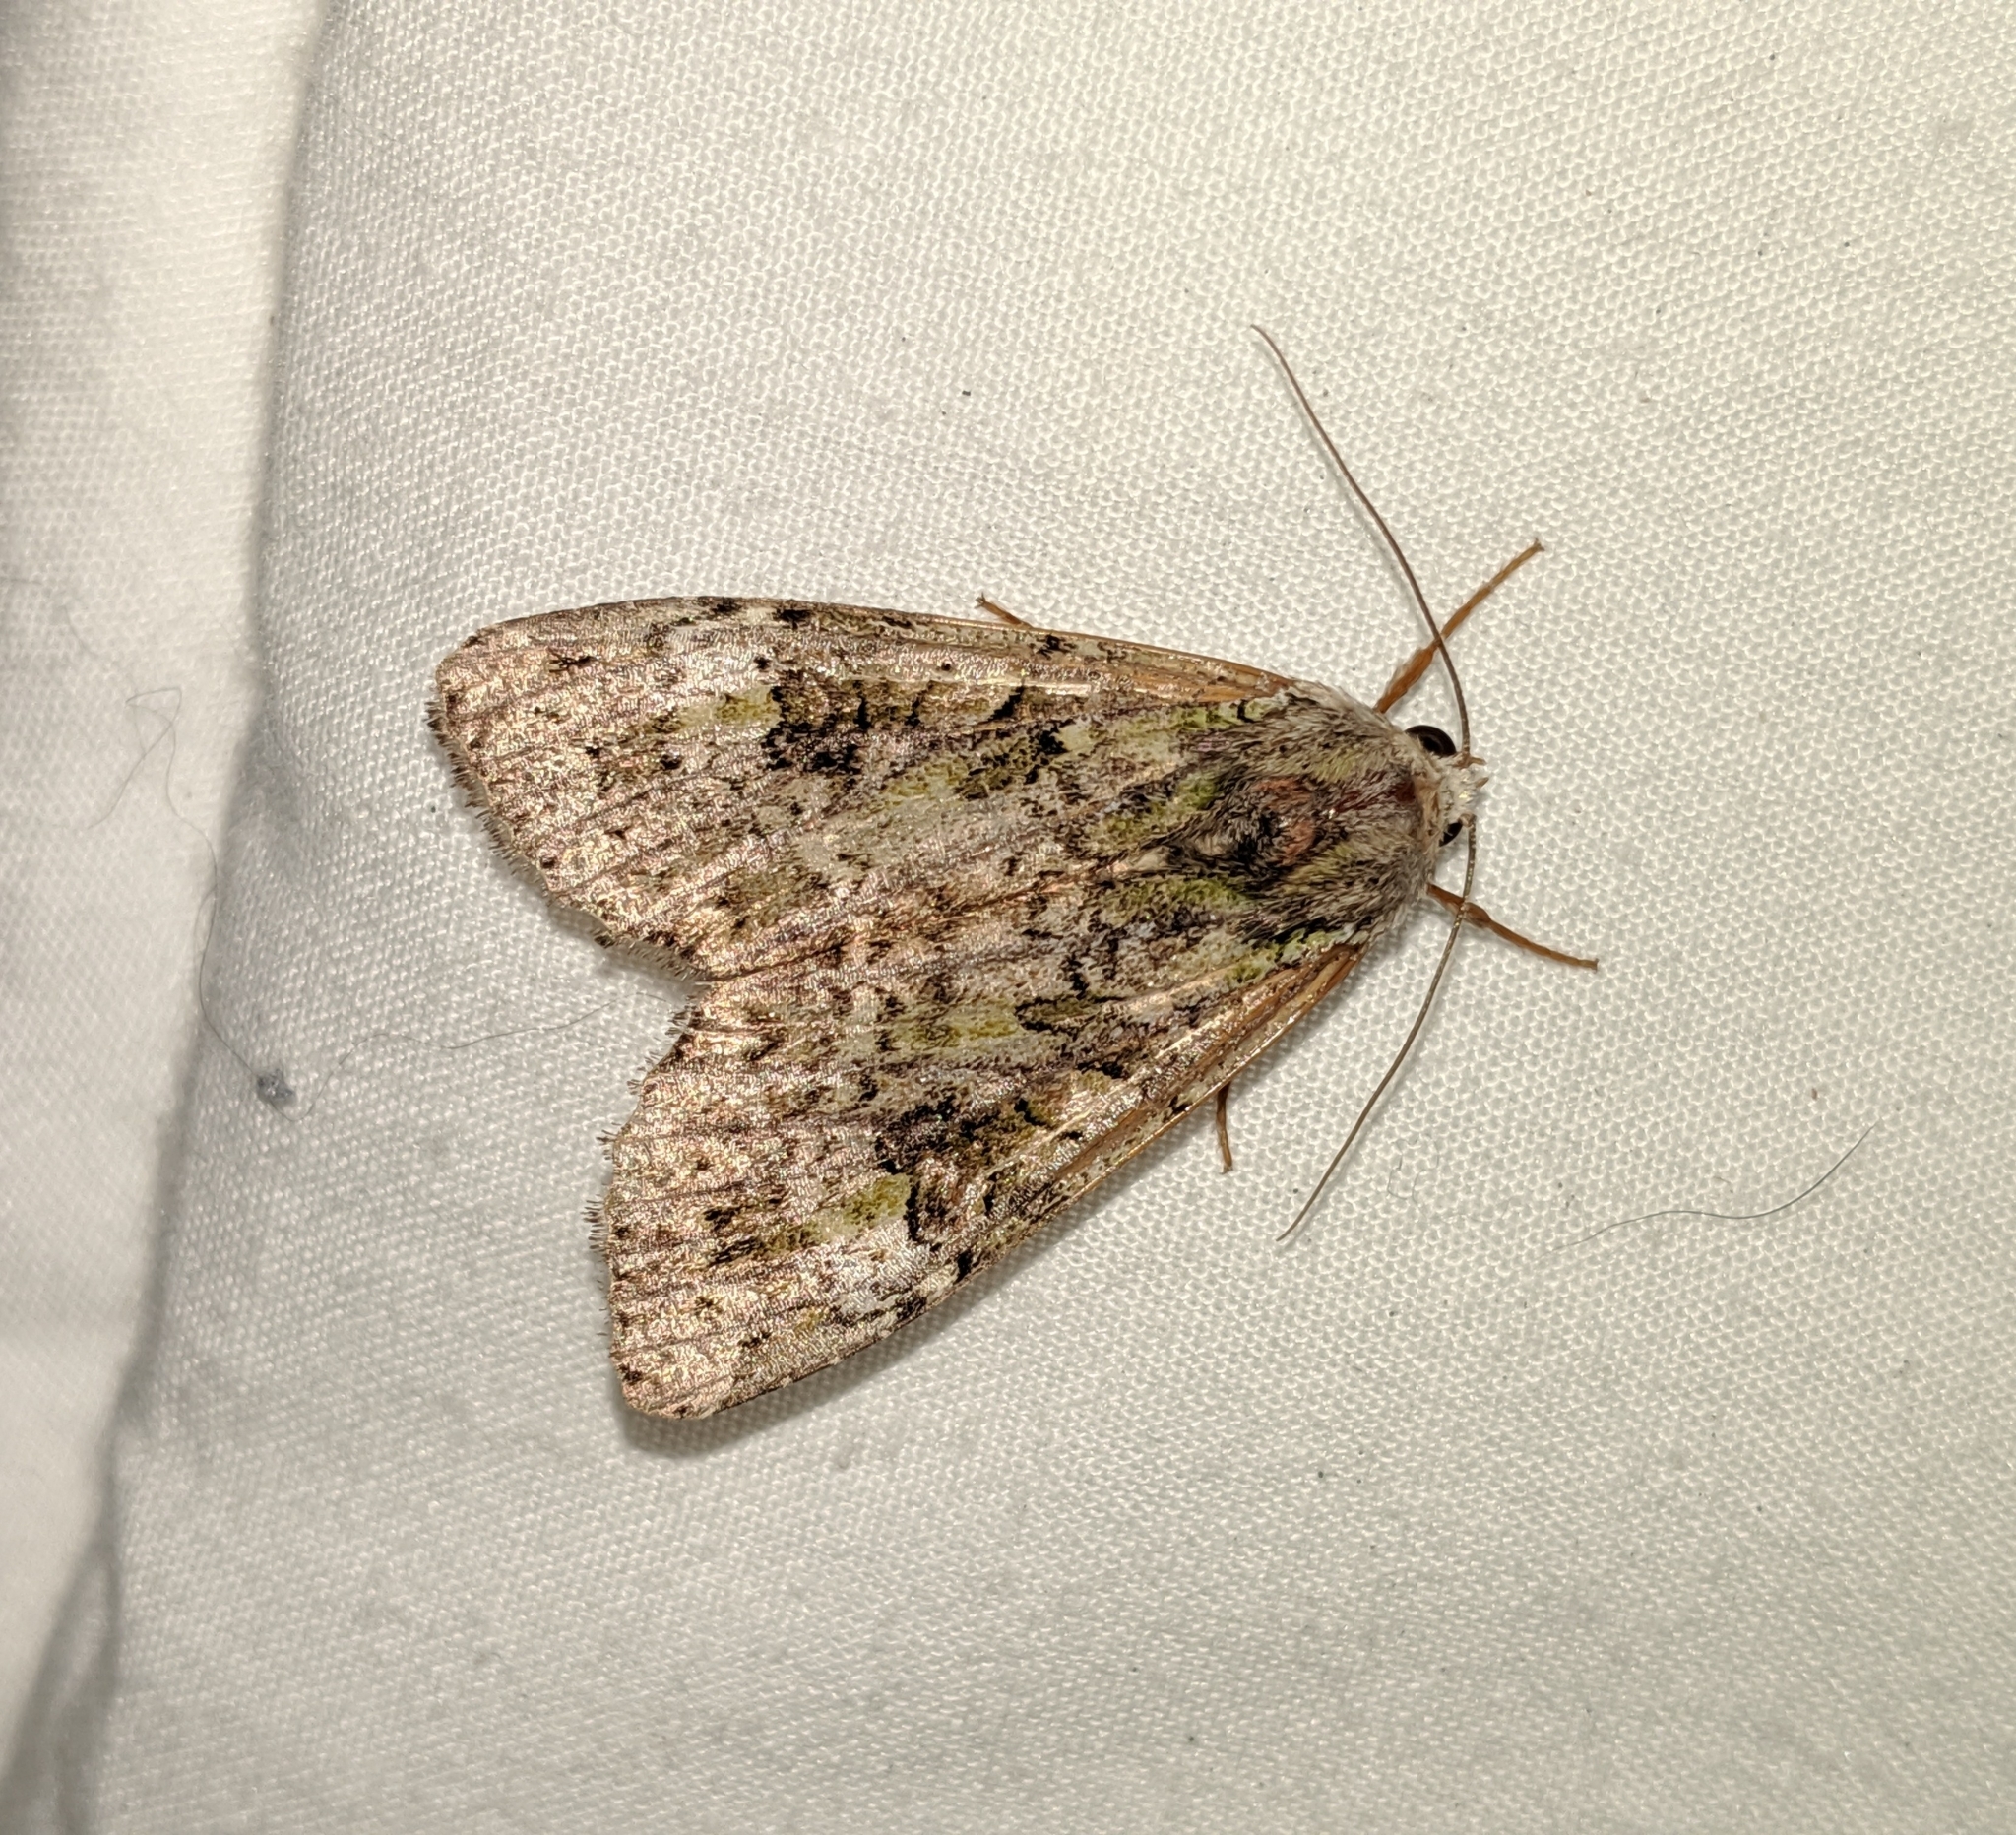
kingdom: Animalia
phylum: Arthropoda
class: Insecta
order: Lepidoptera
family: Noctuidae
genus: Anaplectoides
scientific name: Anaplectoides prasina
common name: Green arches
